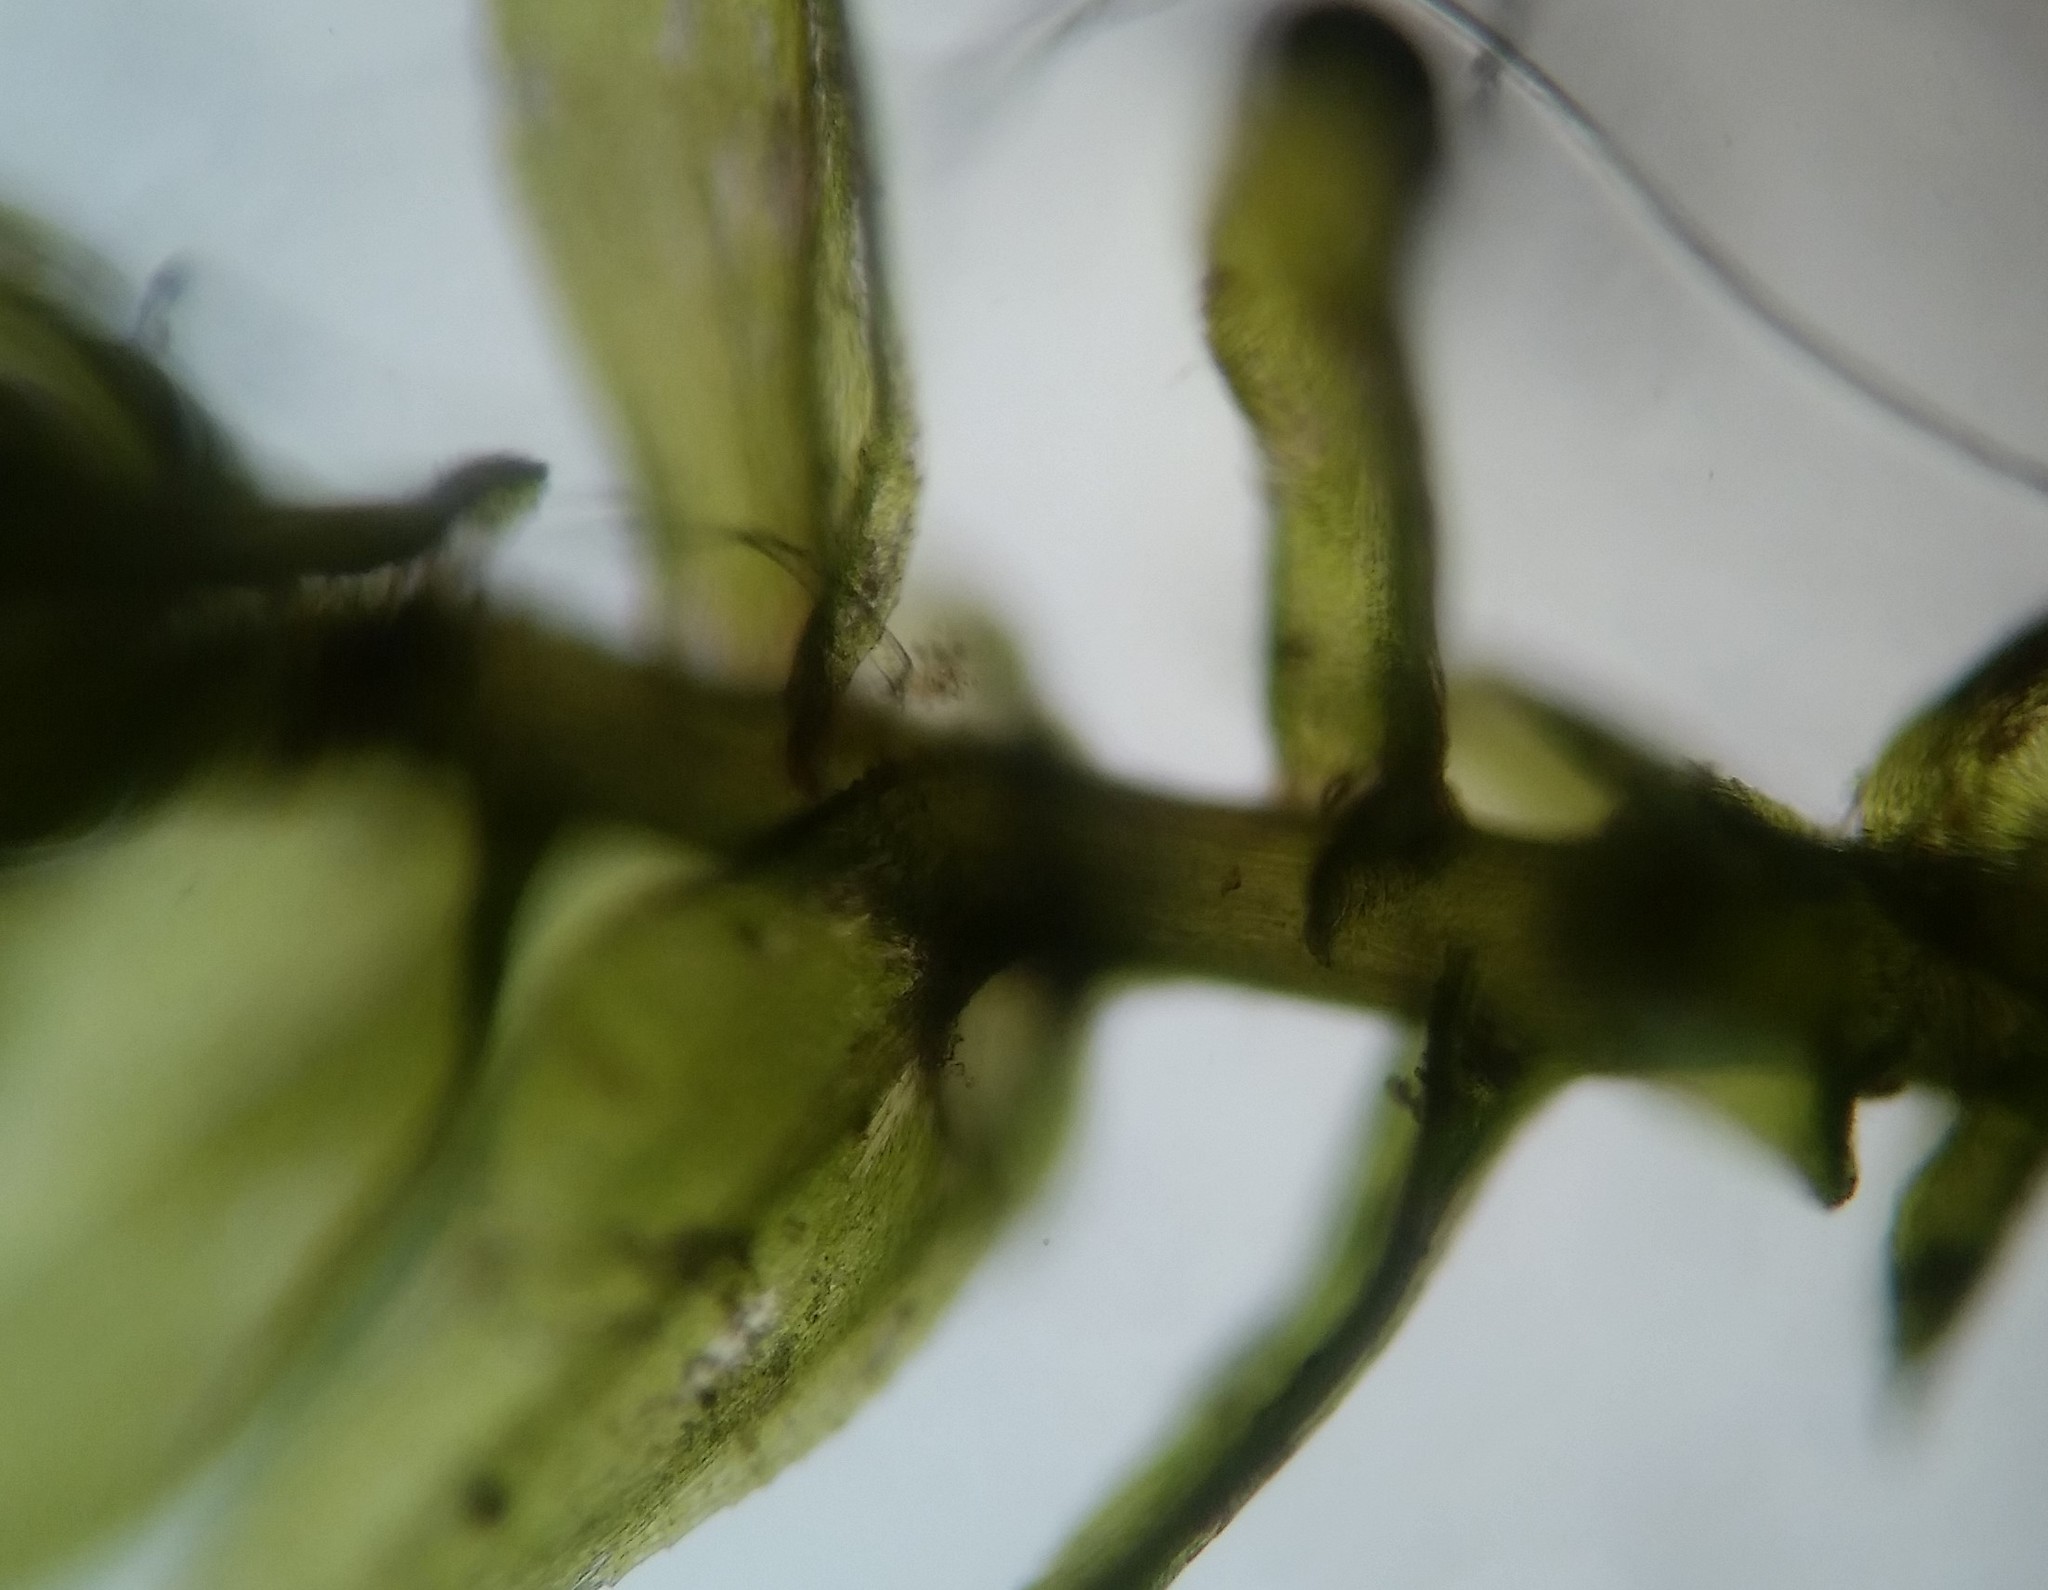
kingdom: Plantae
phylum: Bryophyta
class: Bryopsida
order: Hypnales
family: Brachytheciaceae
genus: Eurhynchiastrum
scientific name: Eurhynchiastrum pulchellum
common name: Elegant beaked moss
